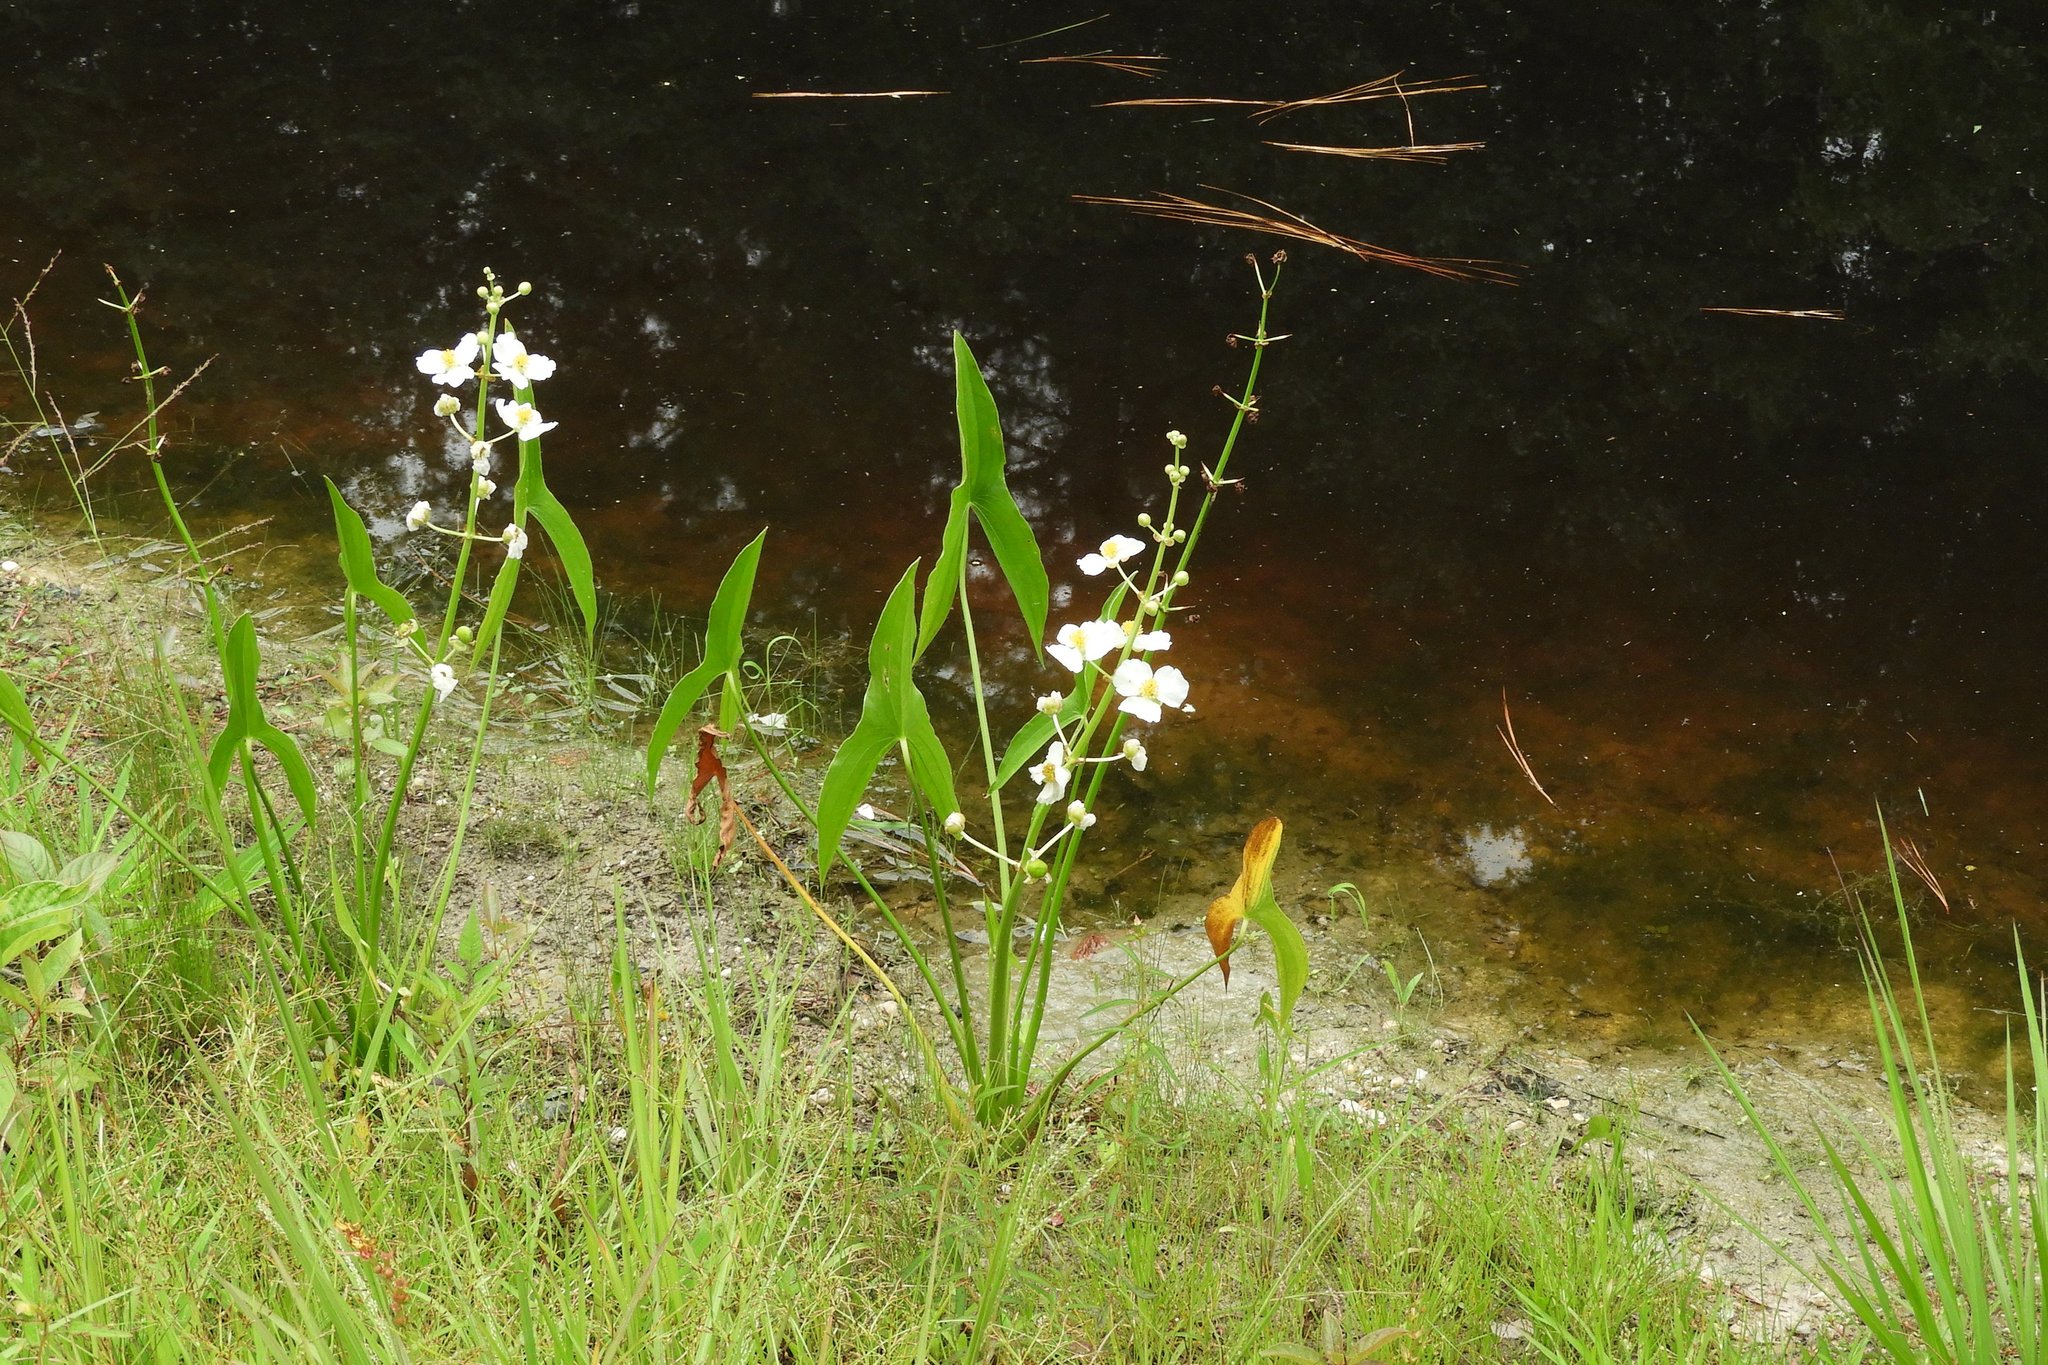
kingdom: Plantae
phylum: Tracheophyta
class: Liliopsida
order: Alismatales
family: Alismataceae
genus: Sagittaria
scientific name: Sagittaria latifolia
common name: Duck-potato
